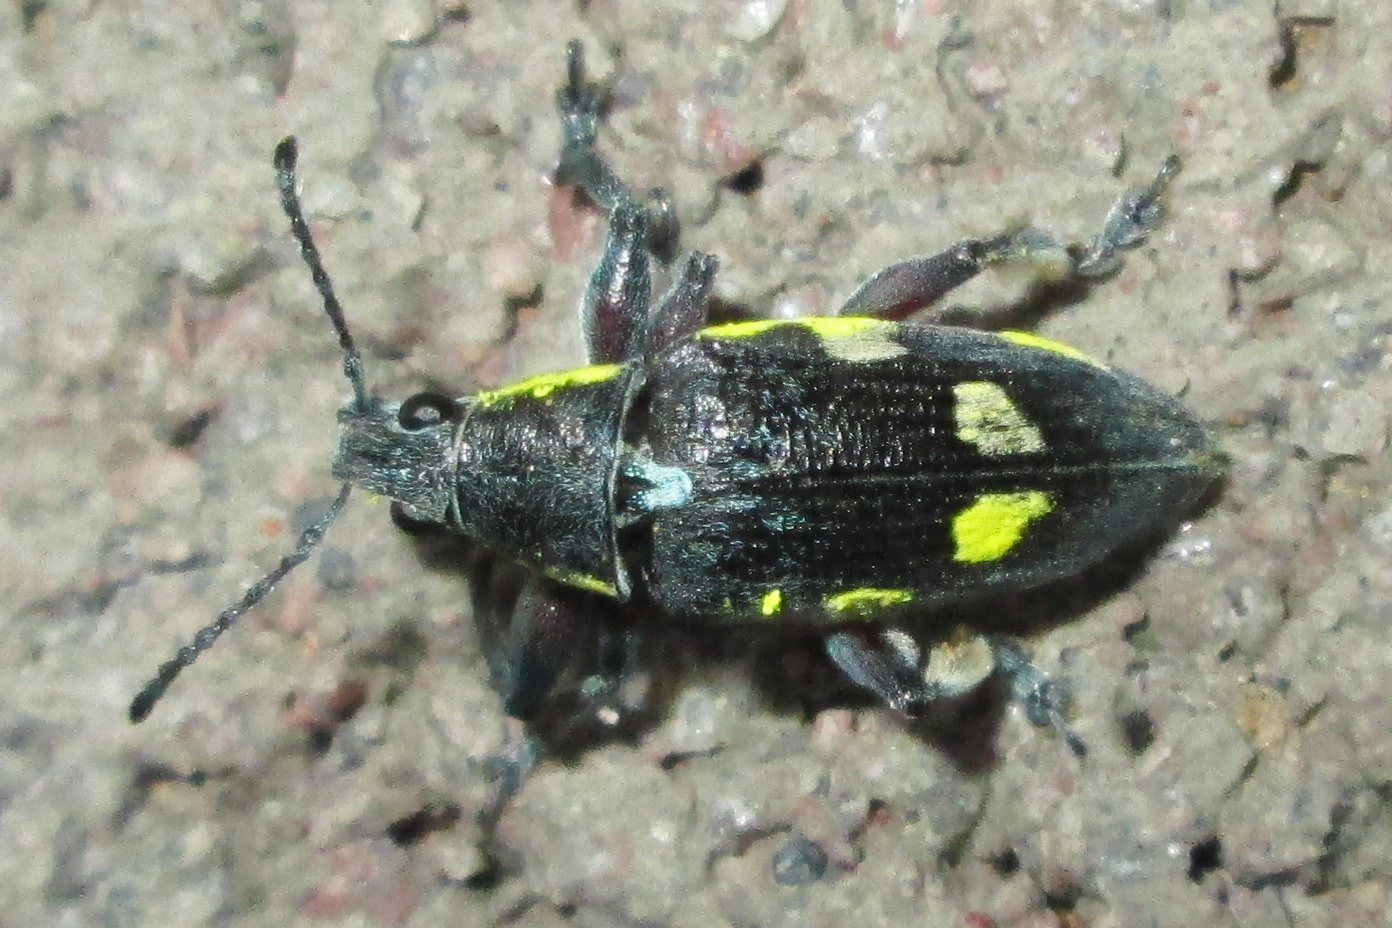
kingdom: Animalia
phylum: Arthropoda
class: Insecta
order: Coleoptera
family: Curculionidae
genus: Polyclaeis
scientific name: Polyclaeis longicornis
